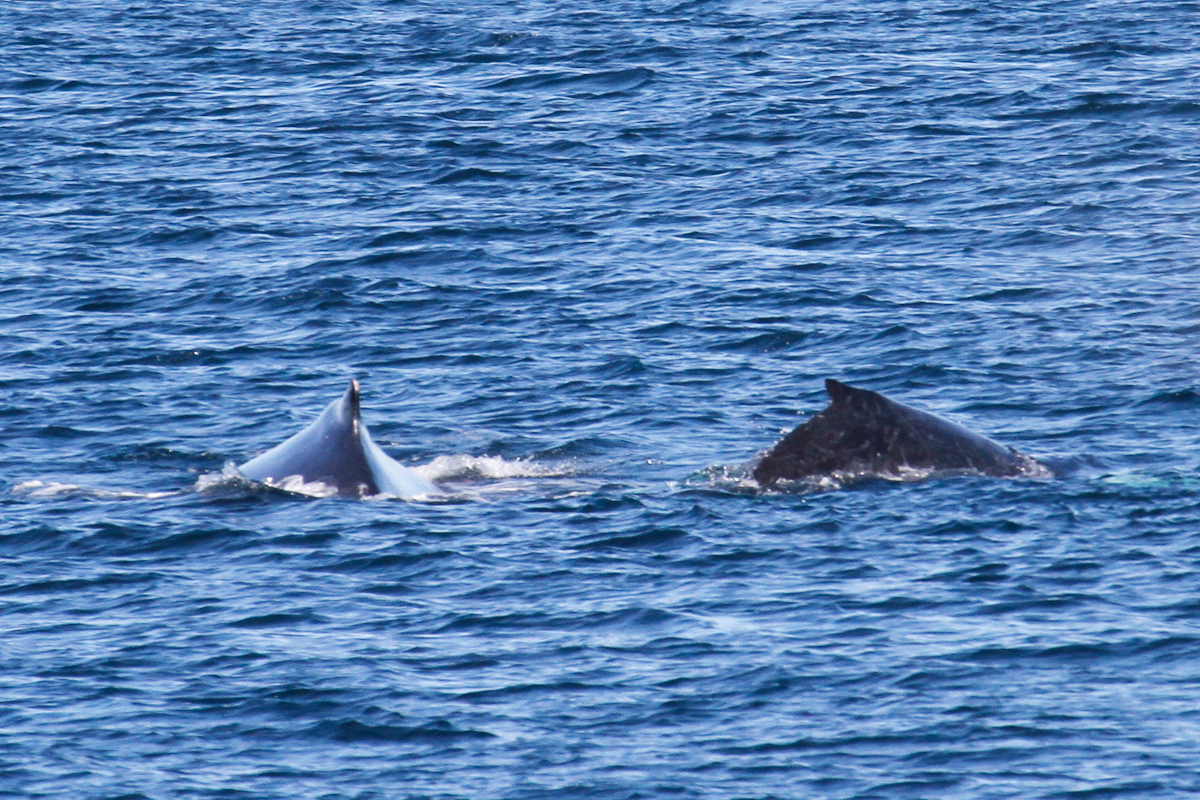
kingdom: Animalia
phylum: Chordata
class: Mammalia
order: Cetacea
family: Balaenopteridae
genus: Megaptera
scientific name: Megaptera novaeangliae
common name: Humpback whale
